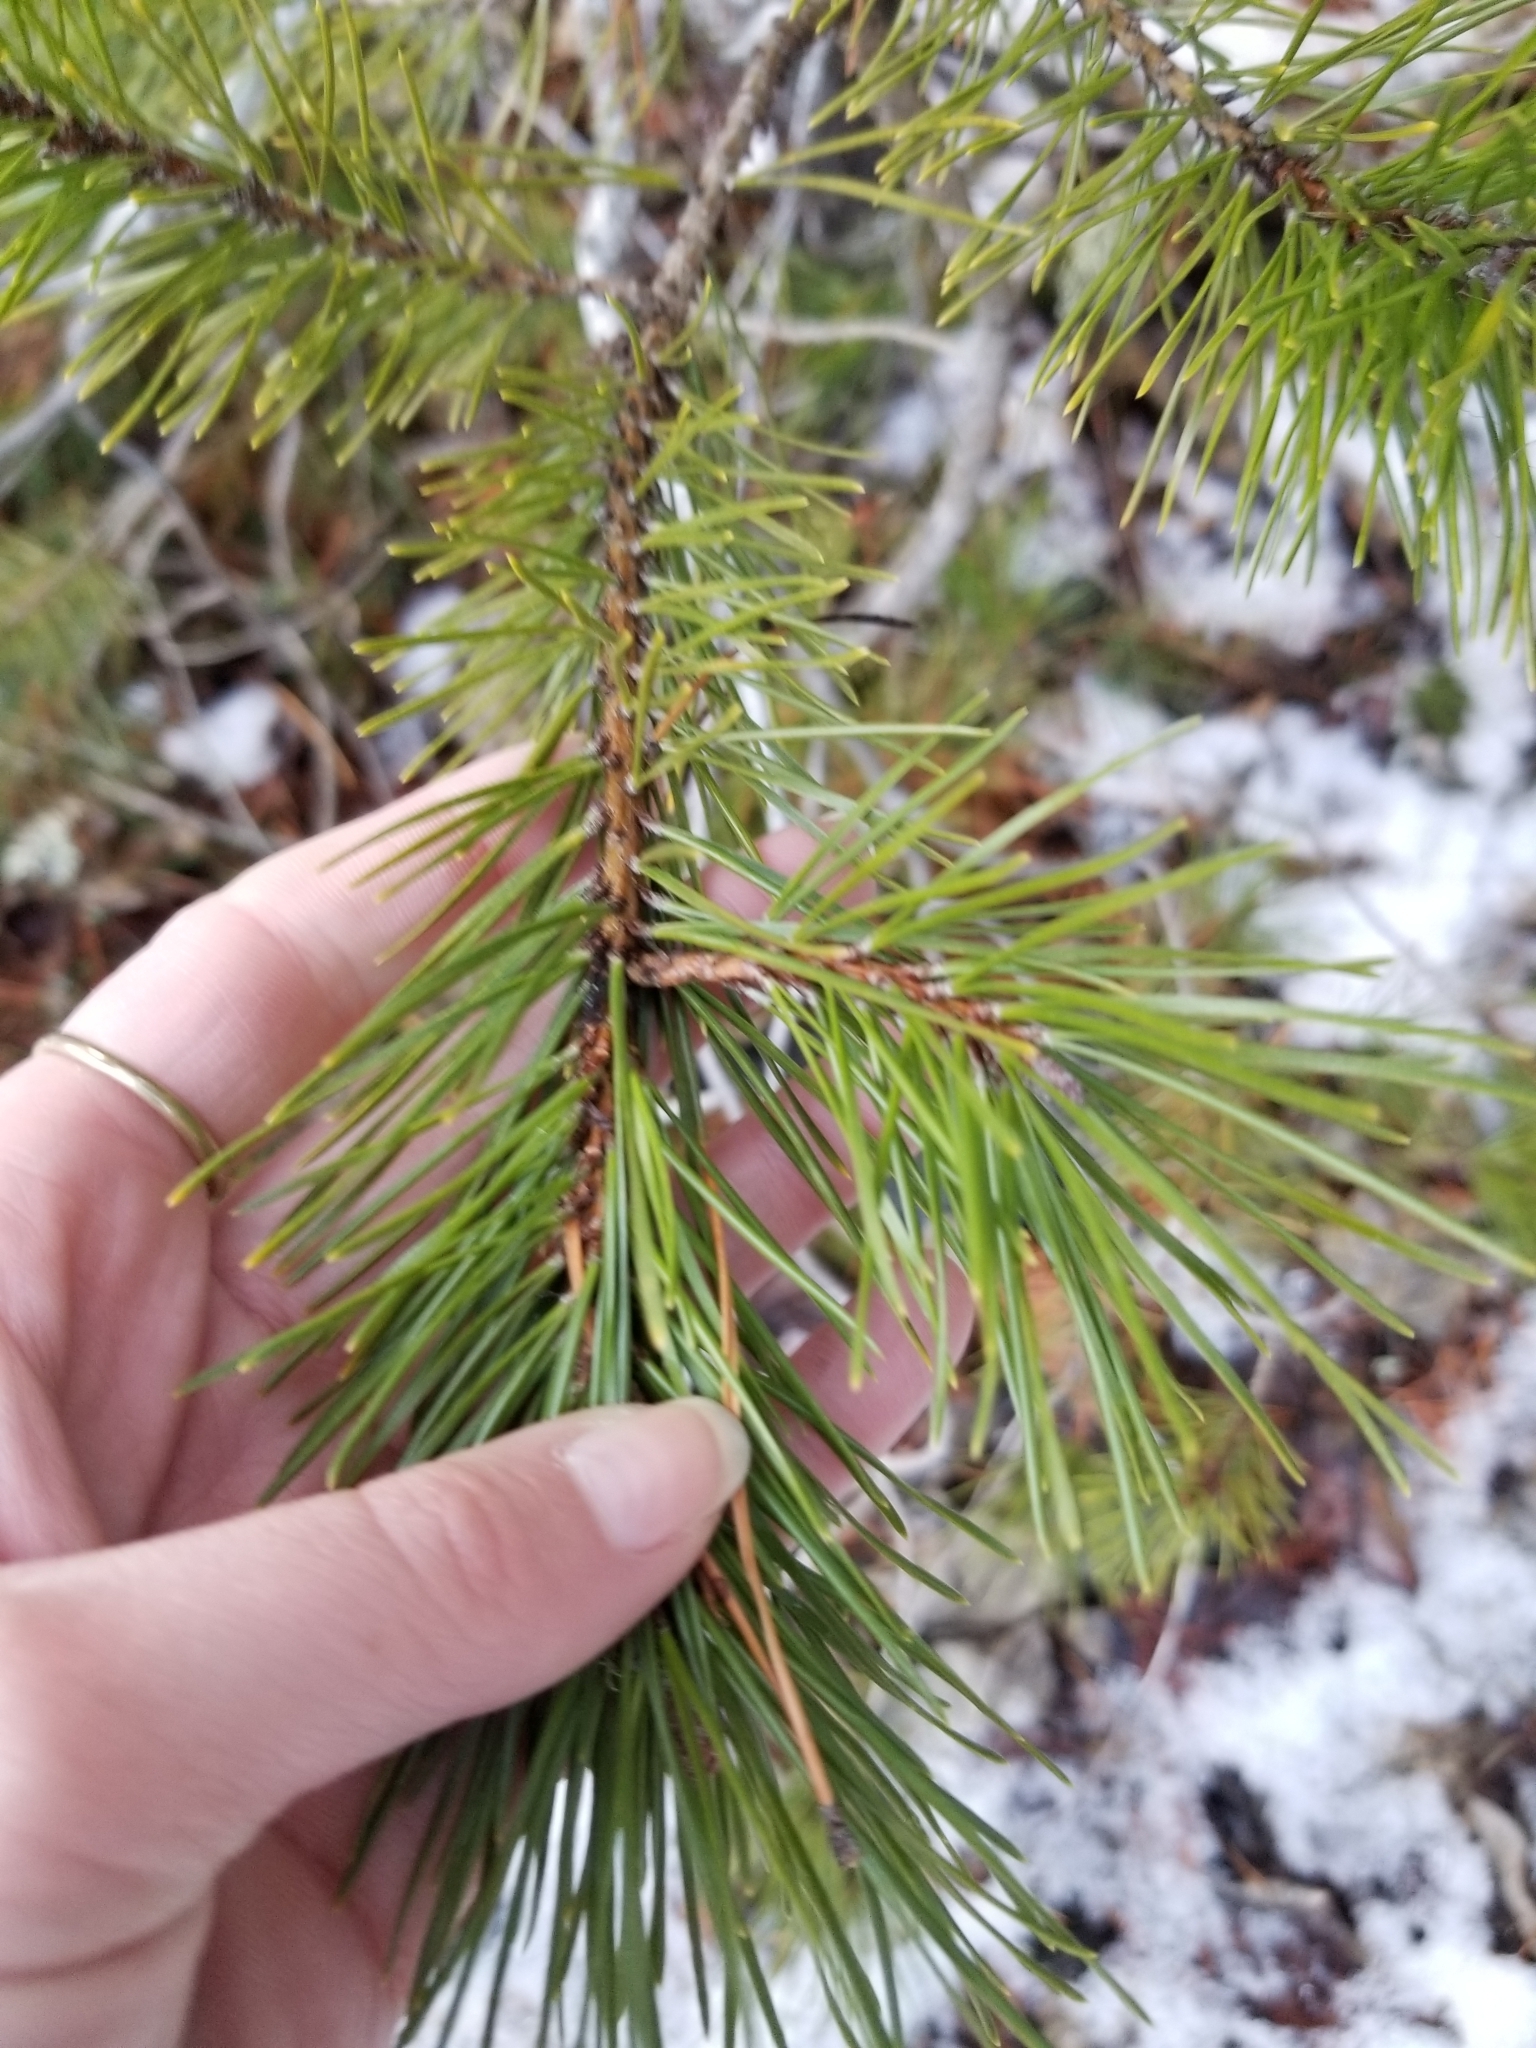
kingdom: Plantae
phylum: Tracheophyta
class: Pinopsida
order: Pinales
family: Pinaceae
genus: Pinus
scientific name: Pinus contorta
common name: Lodgepole pine
